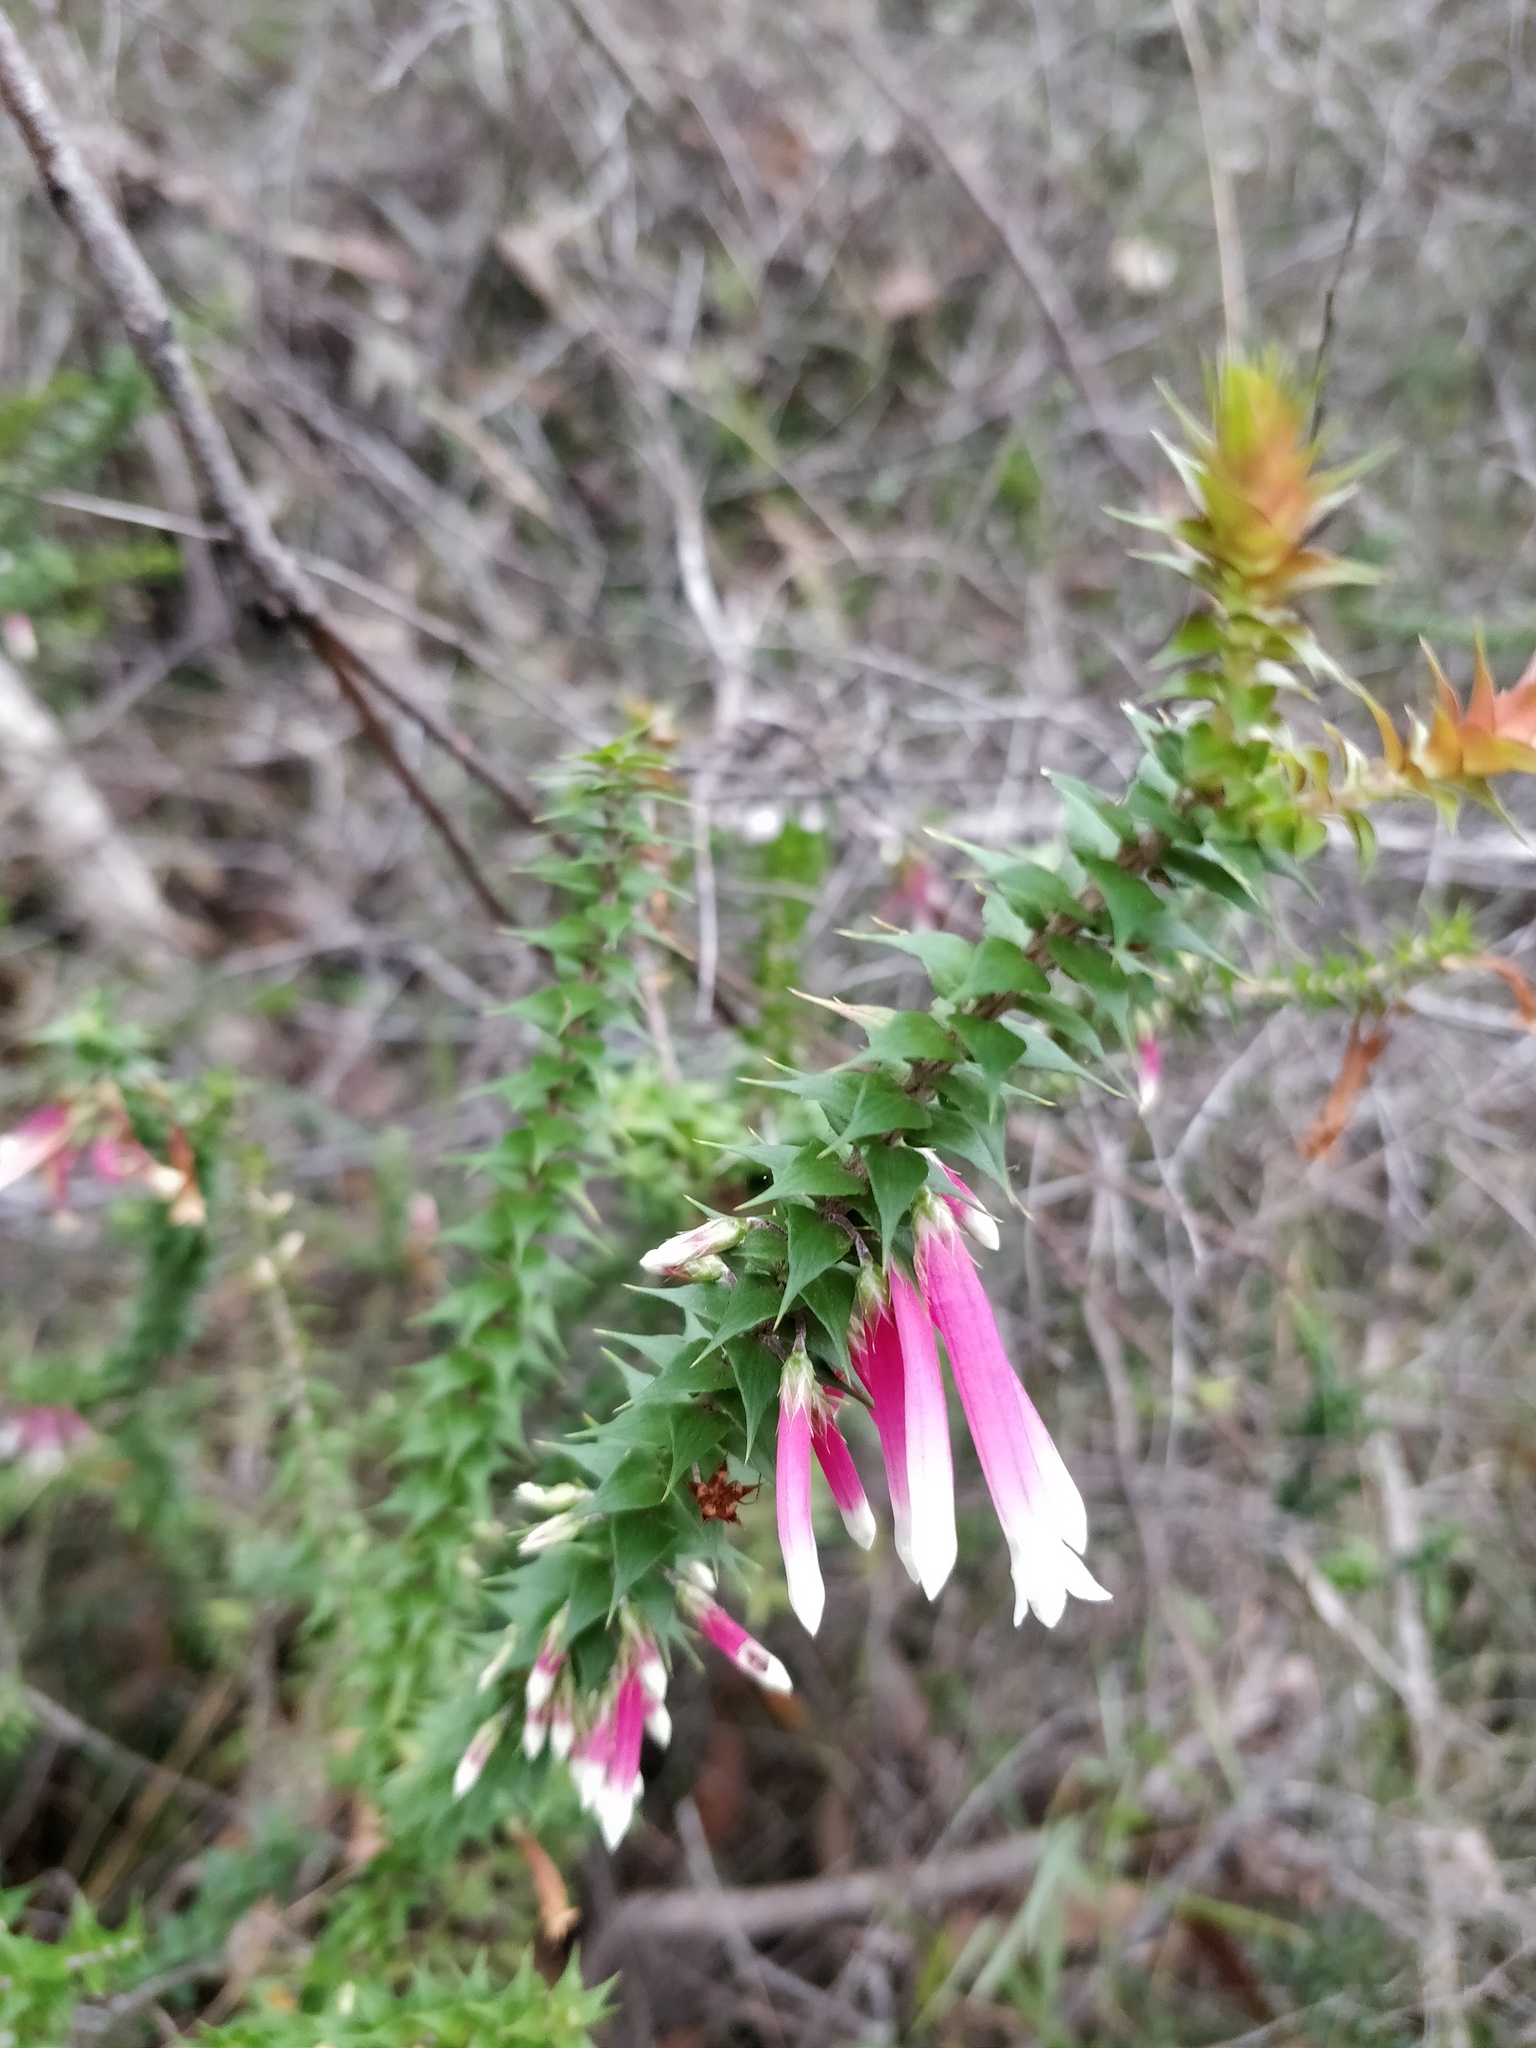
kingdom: Plantae
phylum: Tracheophyta
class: Magnoliopsida
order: Ericales
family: Ericaceae
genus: Epacris
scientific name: Epacris longiflora
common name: Fuchsia-heath
